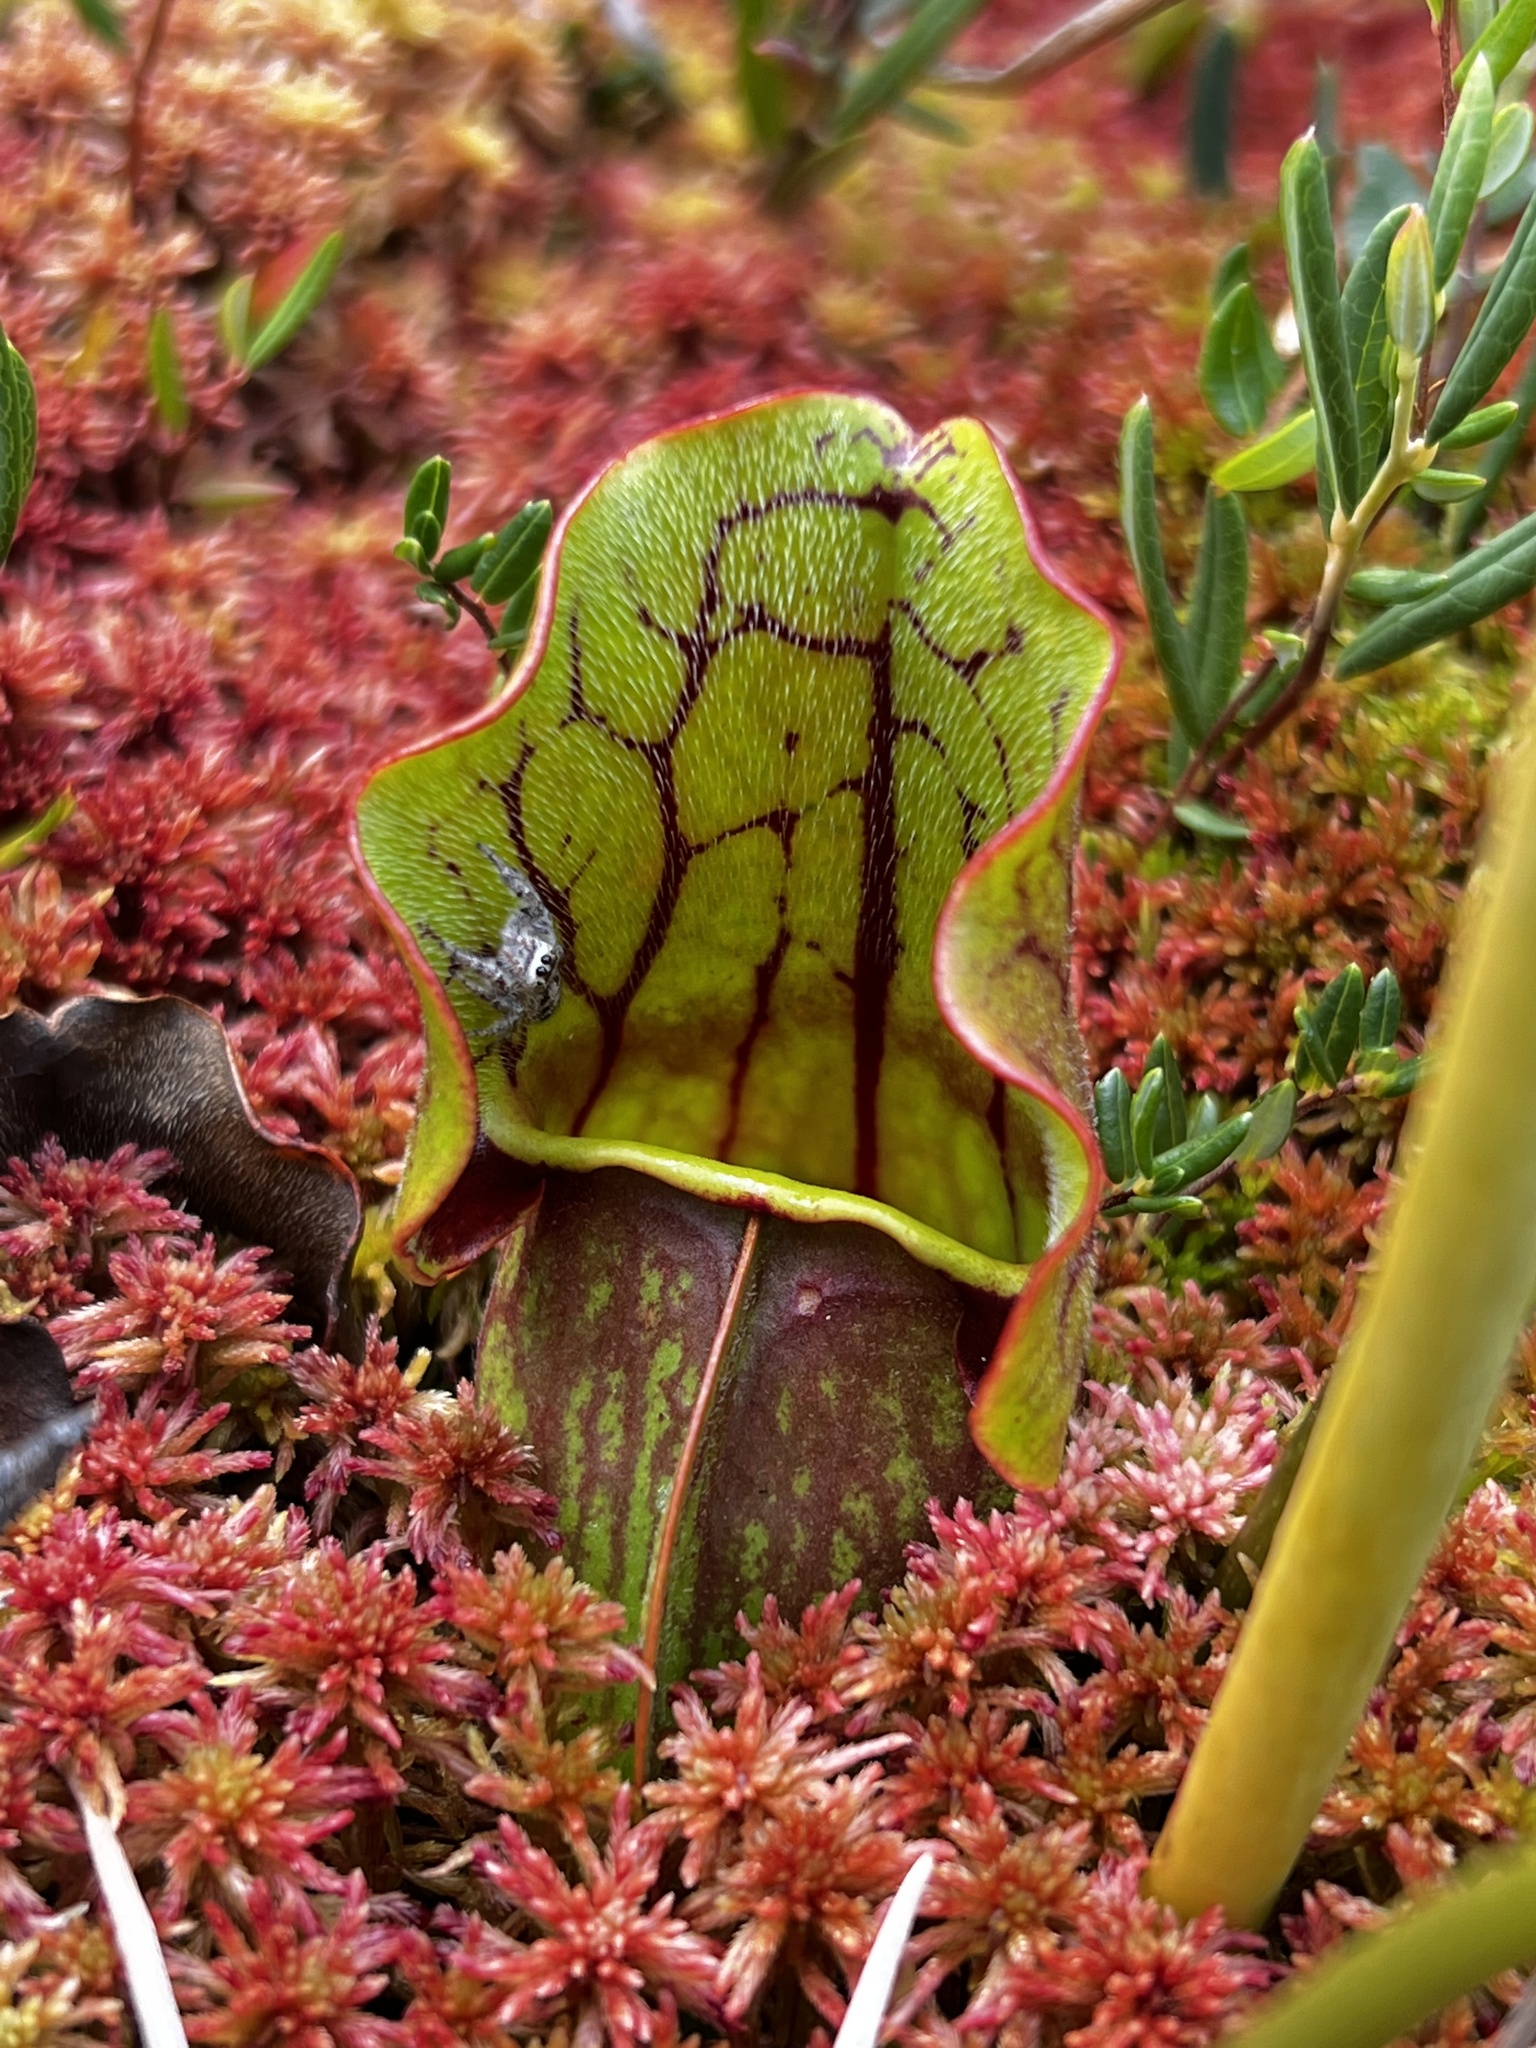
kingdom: Animalia
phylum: Arthropoda
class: Arachnida
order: Araneae
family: Salticidae
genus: Eris
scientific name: Eris militaris
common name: Bronze jumper
